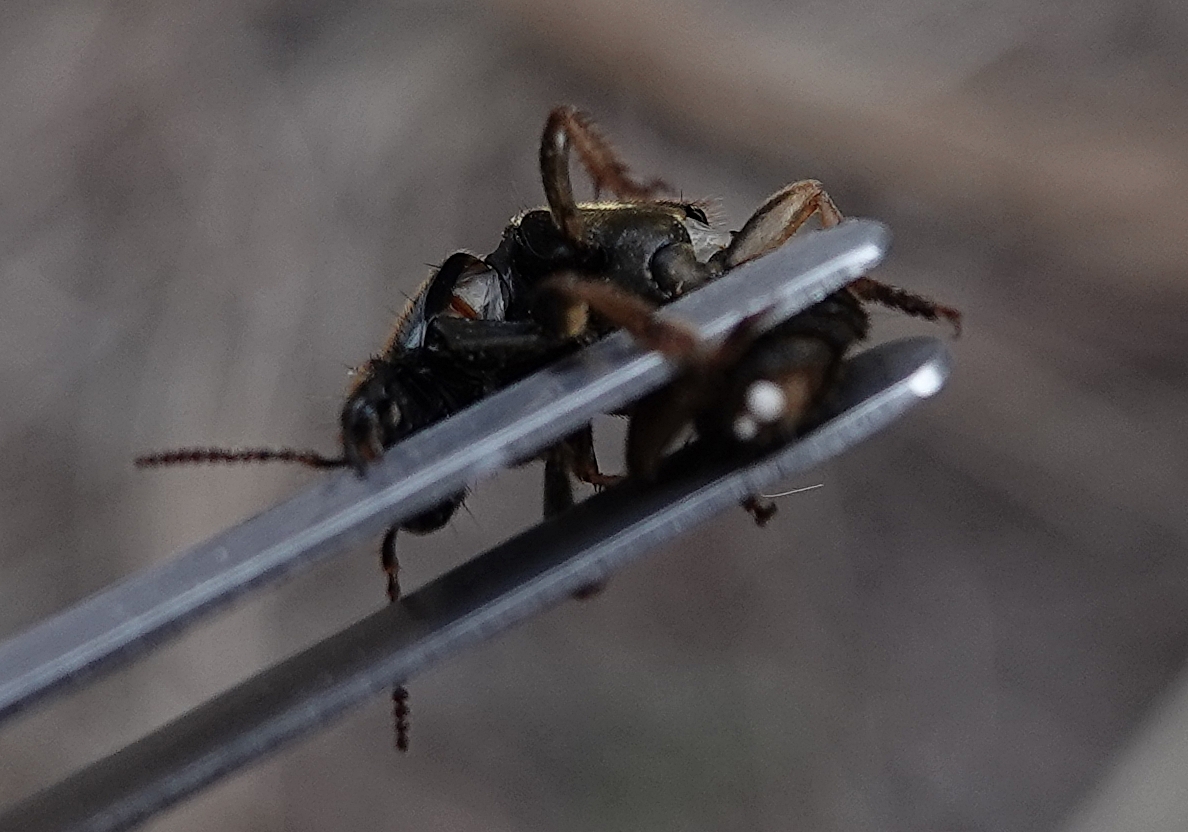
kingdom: Animalia
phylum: Arthropoda
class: Insecta
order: Coleoptera
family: Staphylinidae
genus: Platydracus
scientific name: Platydracus maculosus
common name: Brown rove beetle
